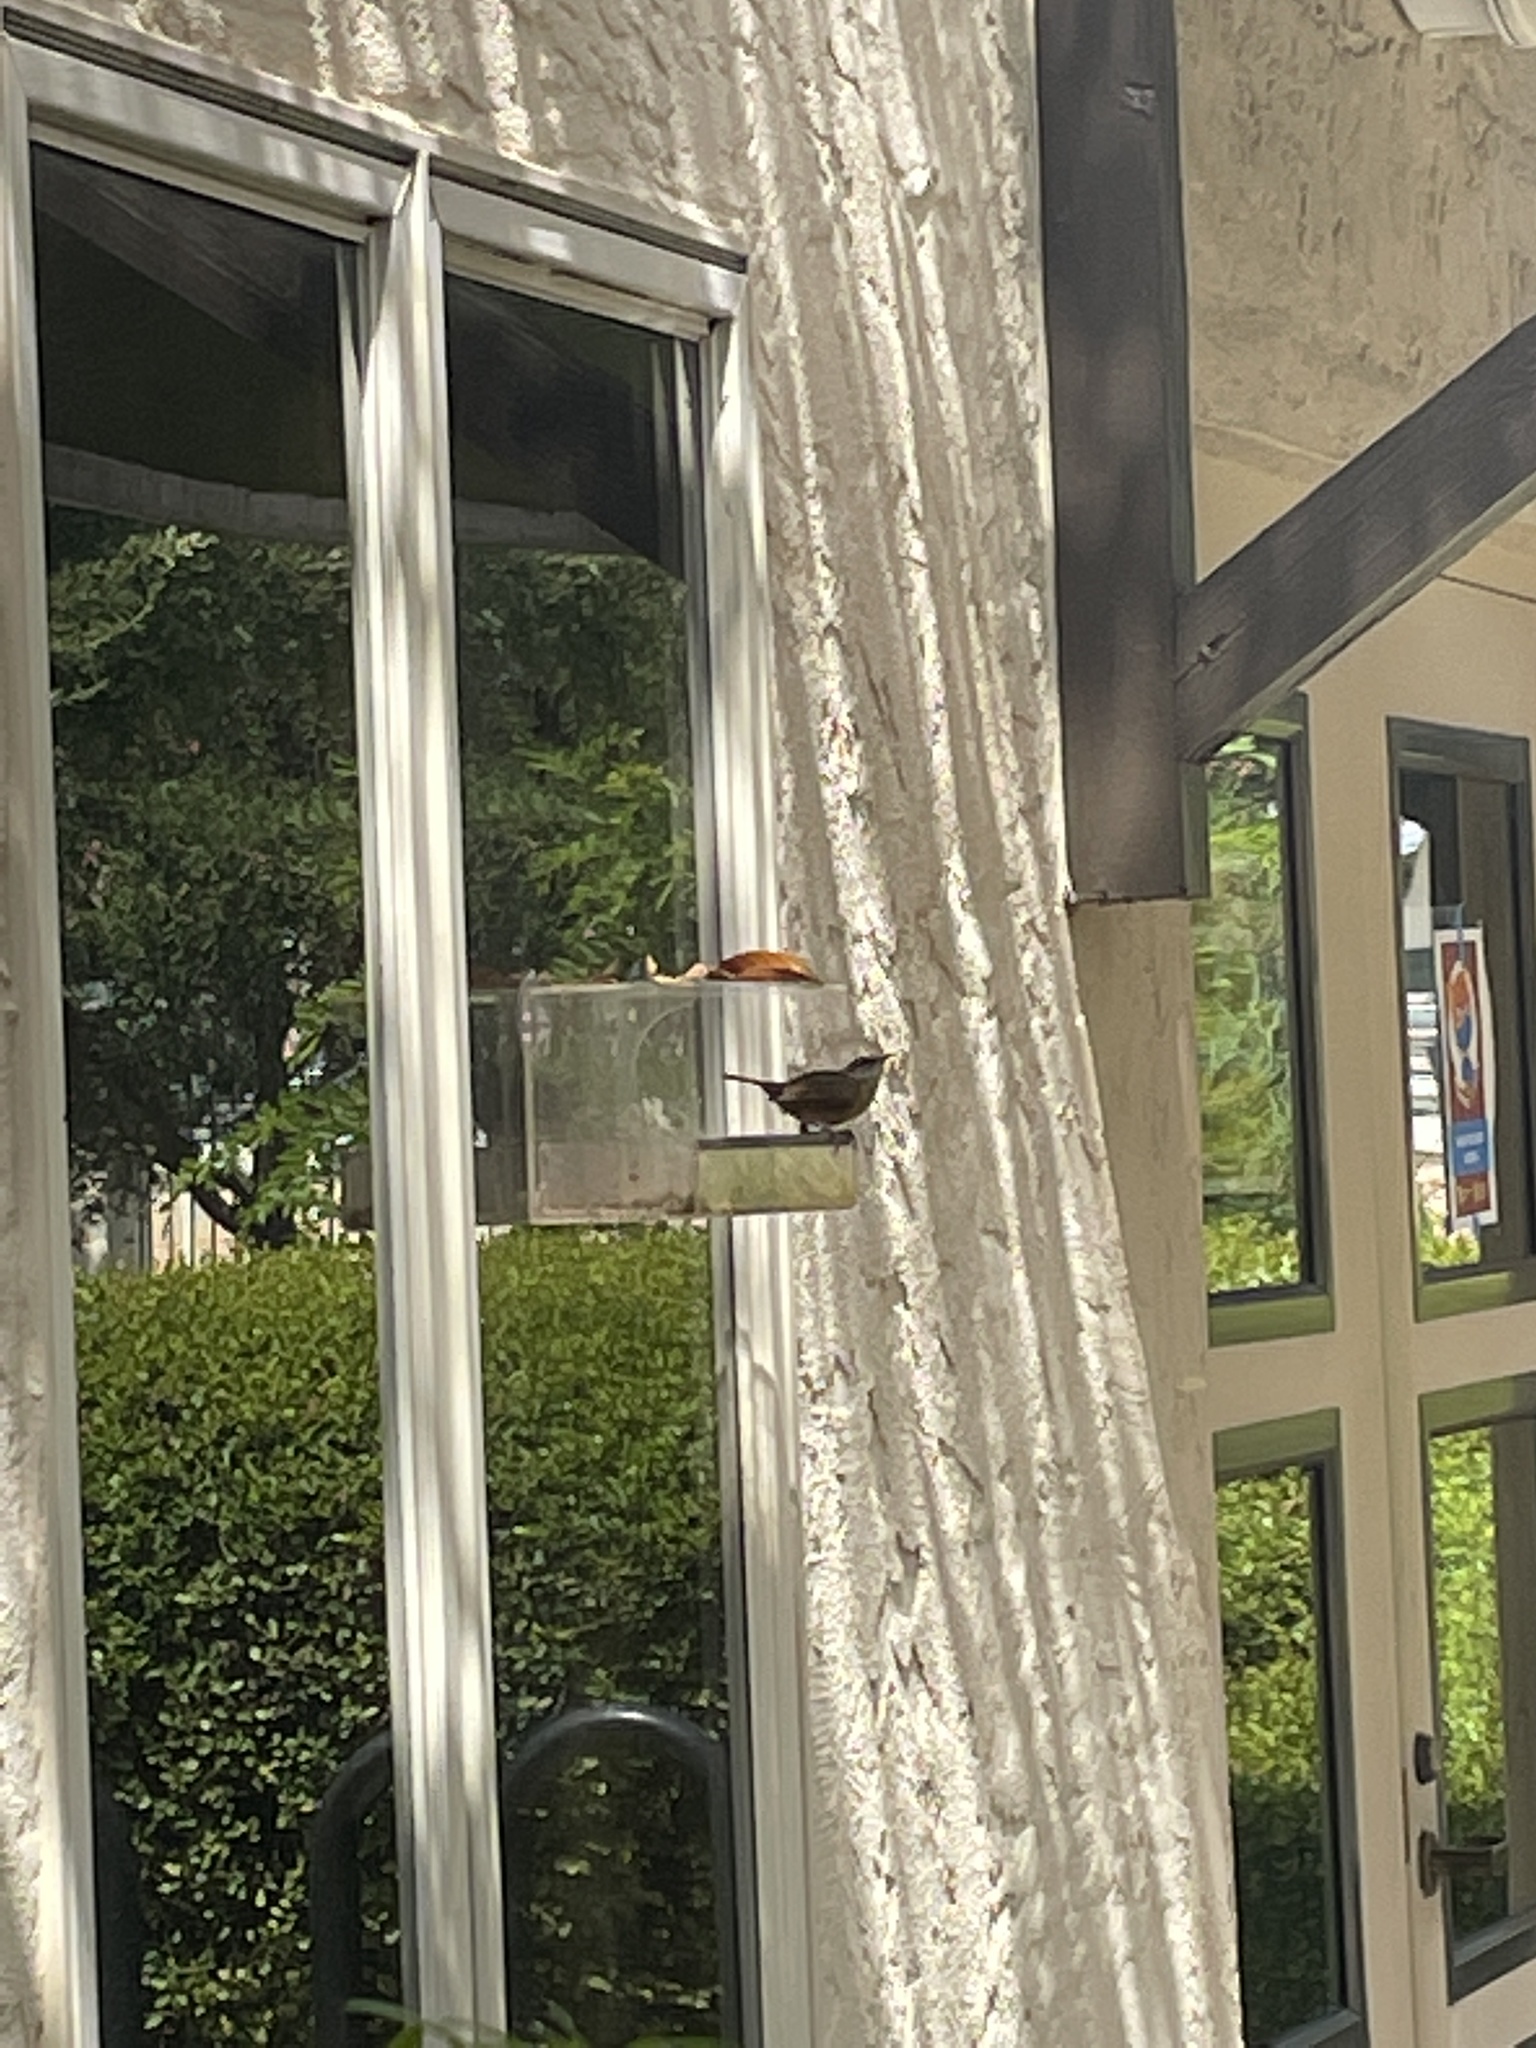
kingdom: Animalia
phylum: Chordata
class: Aves
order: Passeriformes
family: Troglodytidae
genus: Thryothorus
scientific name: Thryothorus ludovicianus
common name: Carolina wren
